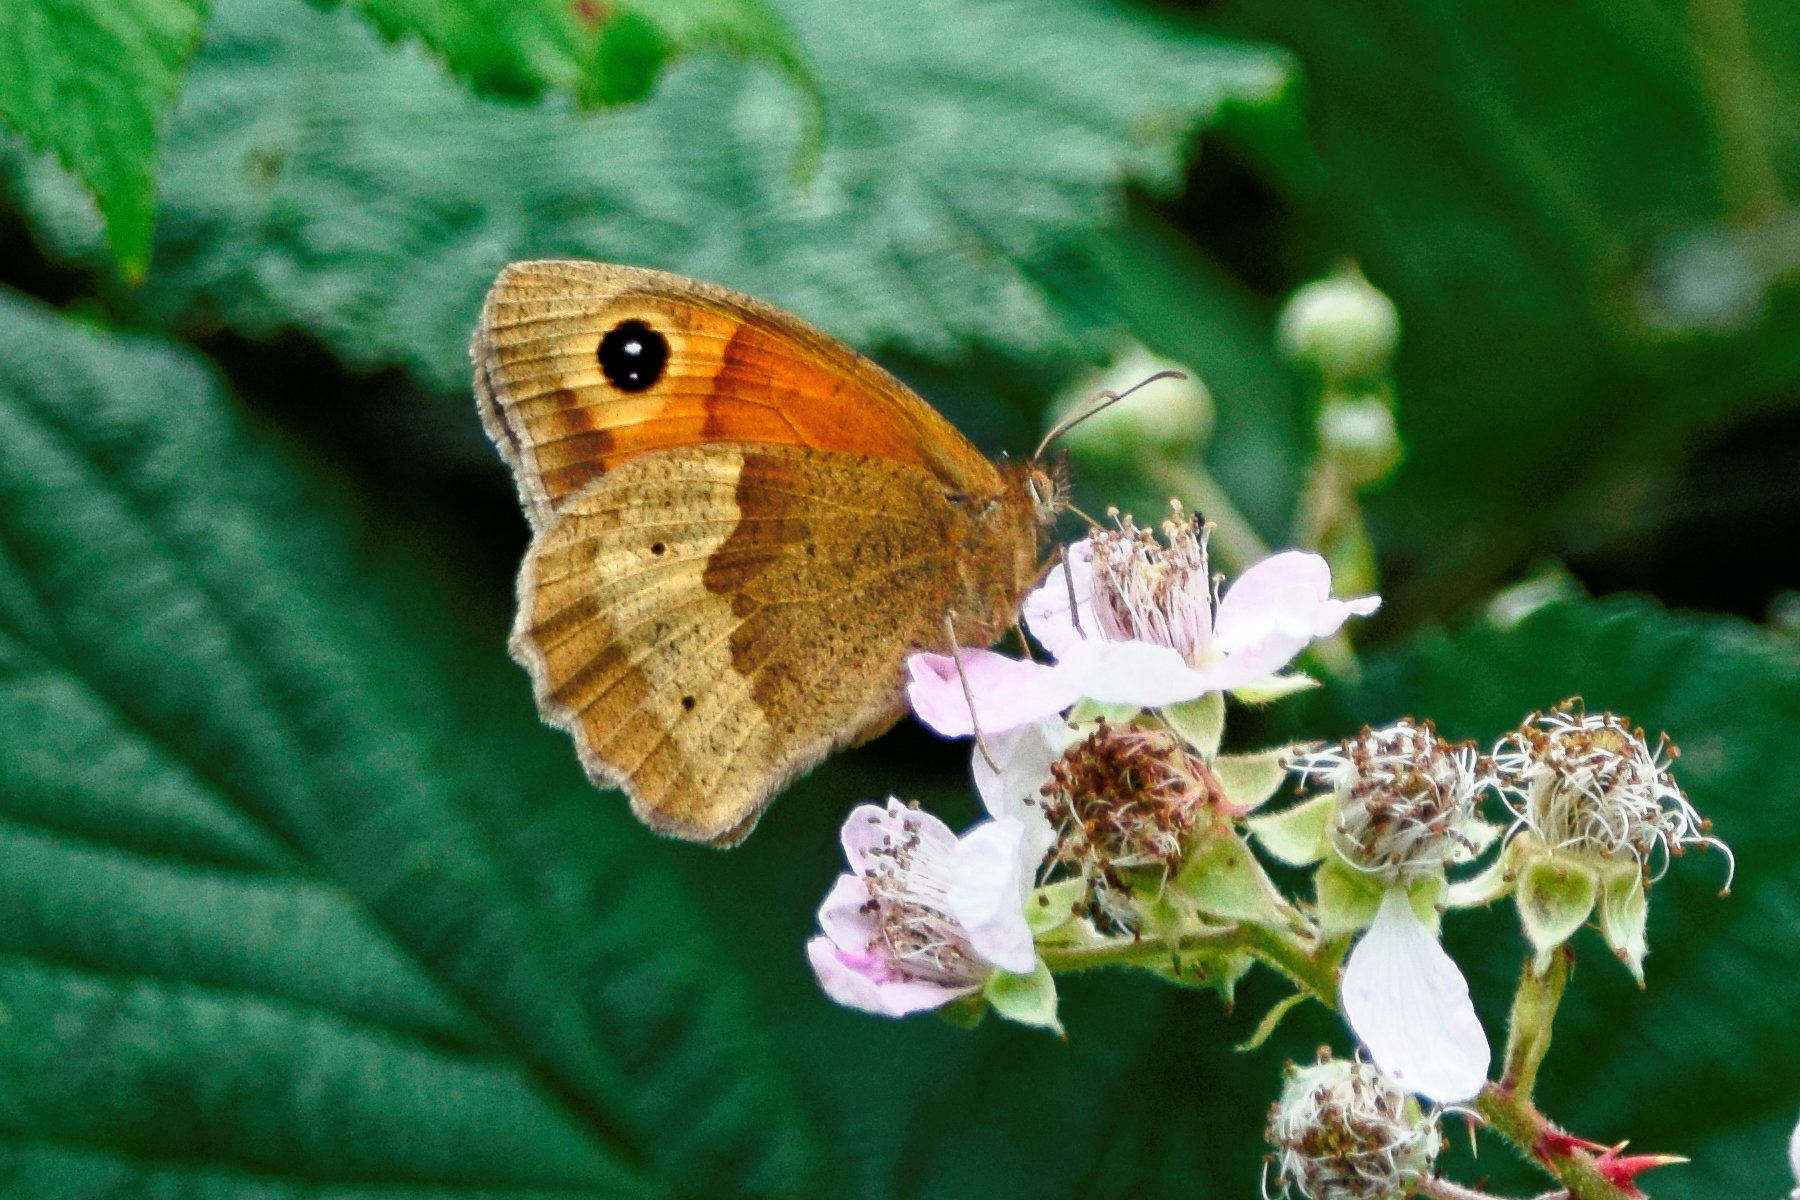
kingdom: Animalia
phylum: Arthropoda
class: Insecta
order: Lepidoptera
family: Nymphalidae
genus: Maniola
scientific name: Maniola jurtina
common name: Meadow brown
